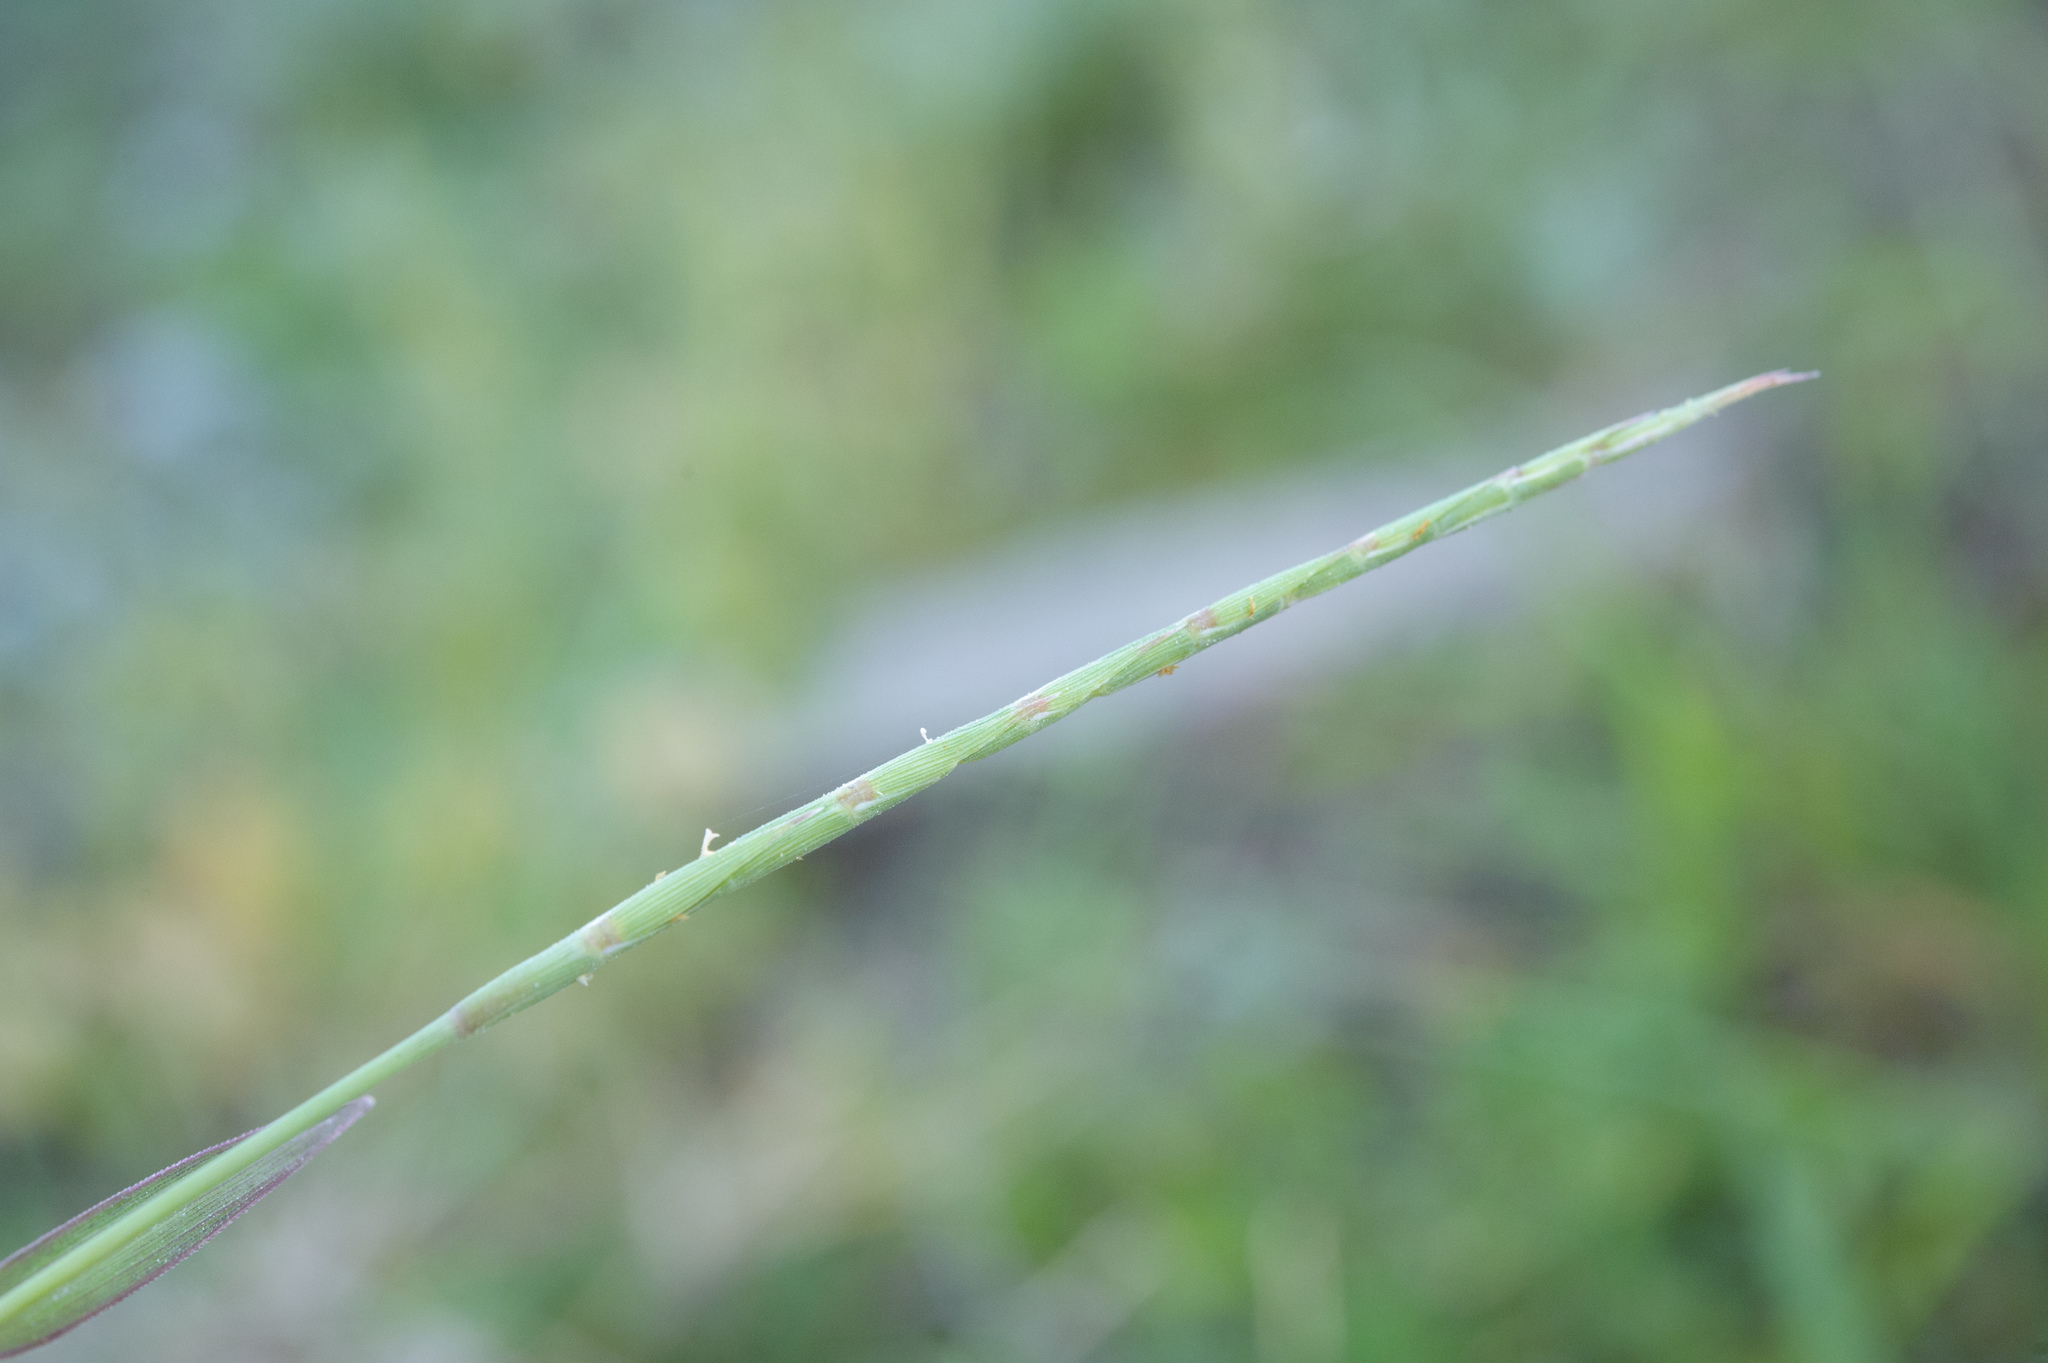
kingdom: Plantae
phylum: Tracheophyta
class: Liliopsida
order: Poales
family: Poaceae
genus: Lepturus
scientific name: Lepturus repens
